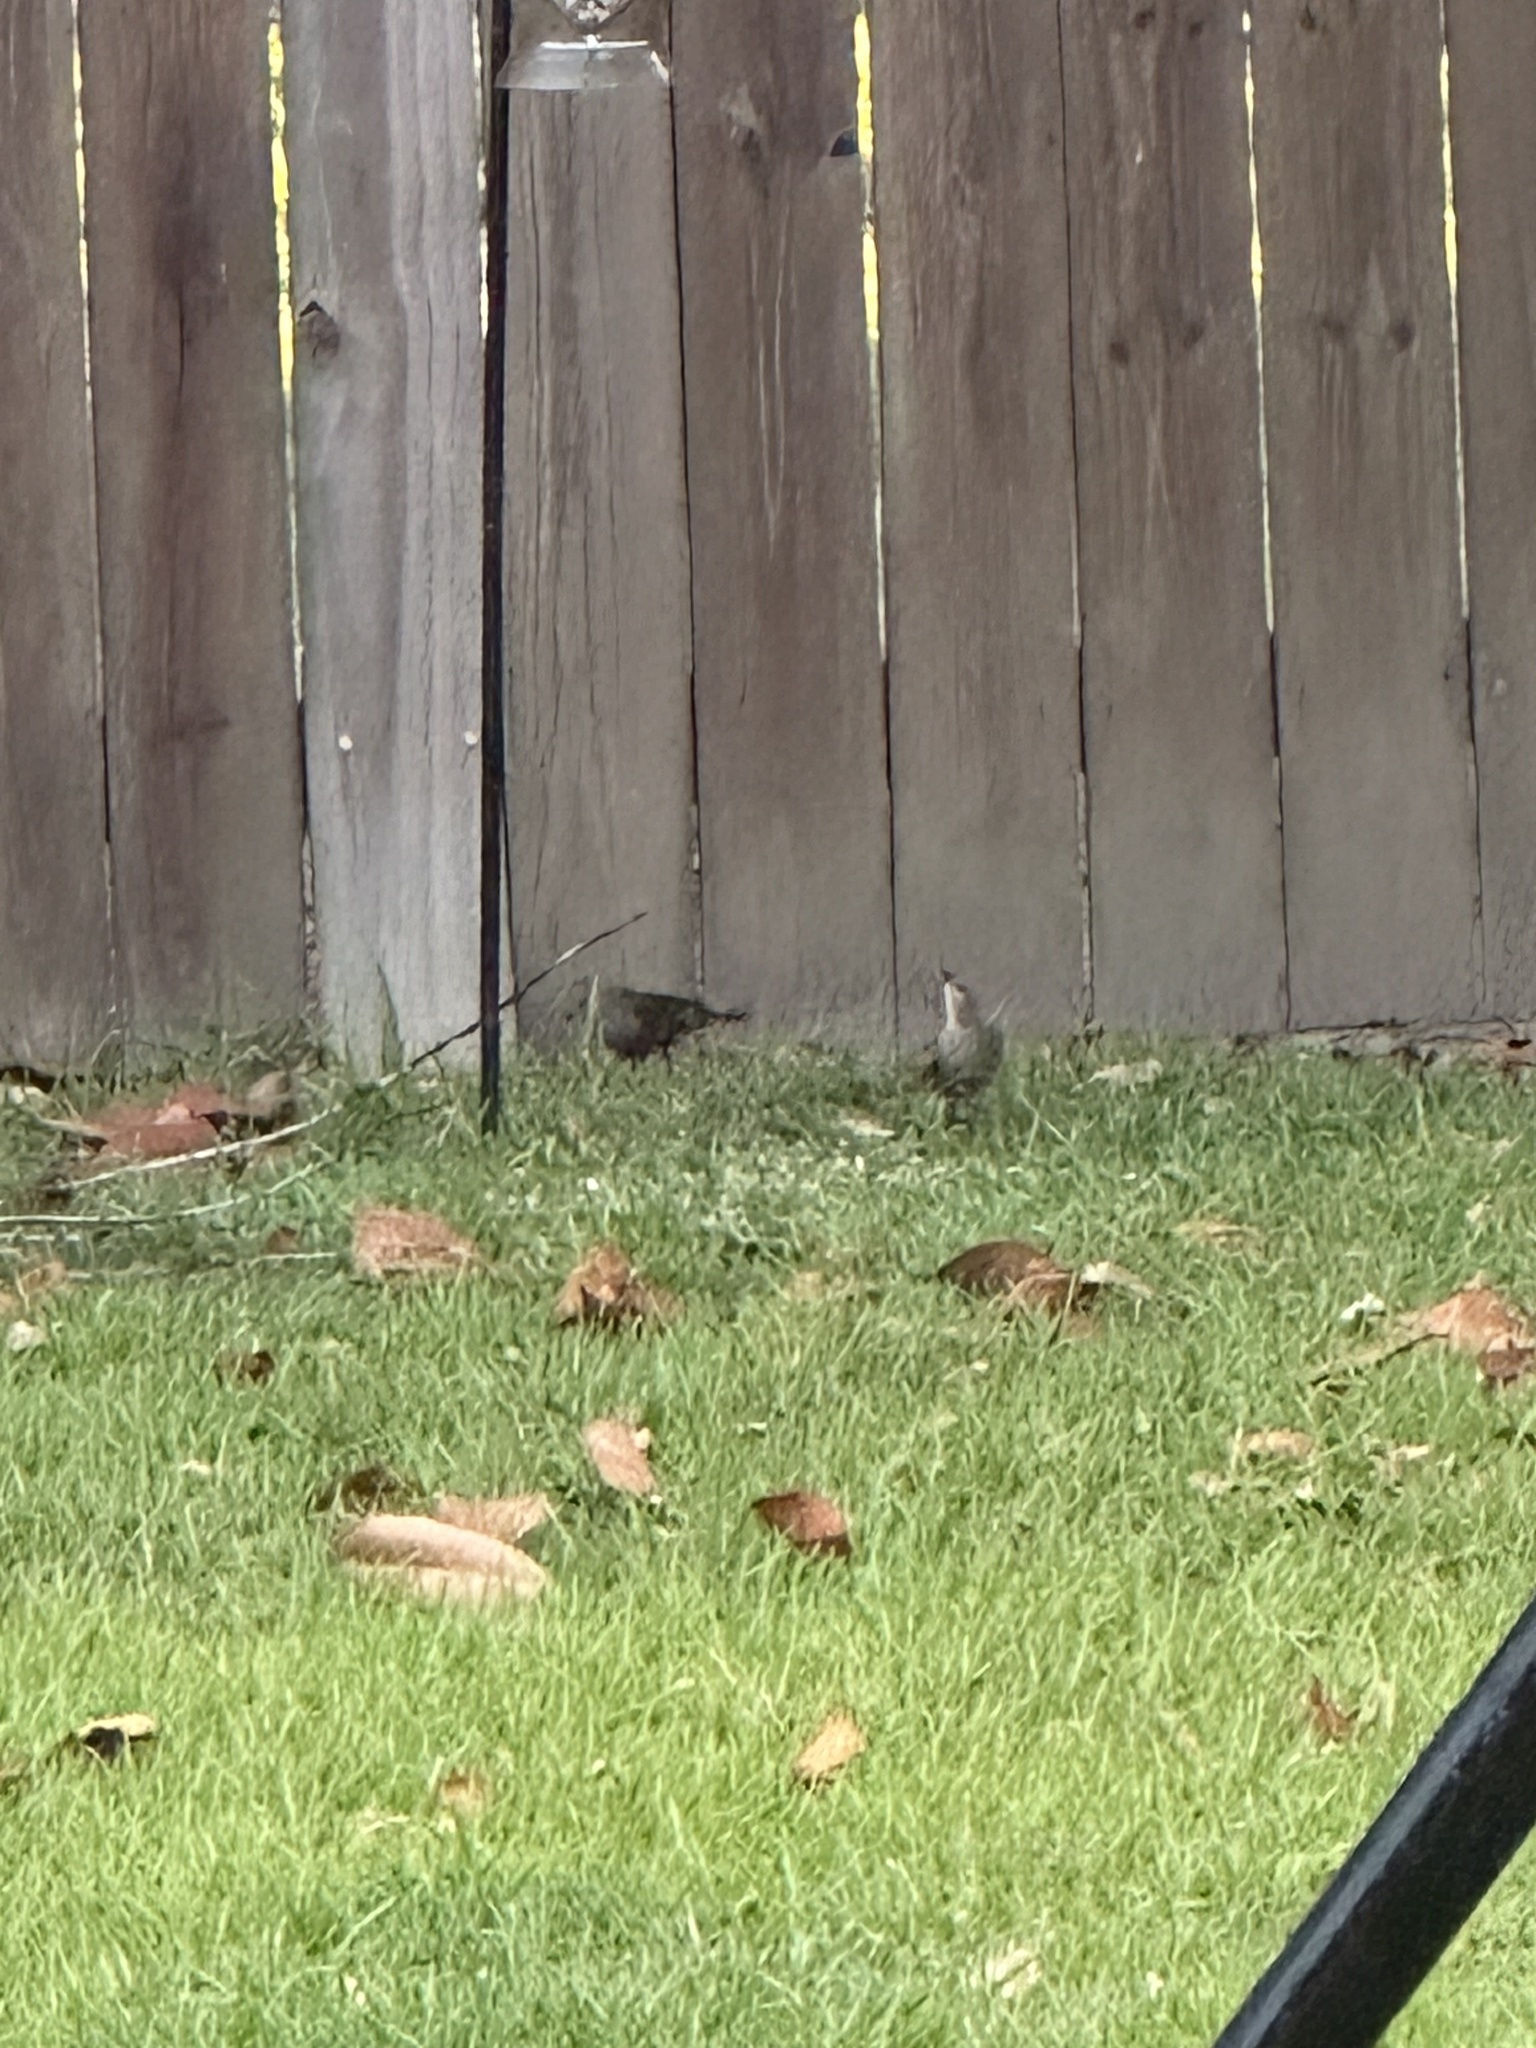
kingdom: Animalia
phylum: Chordata
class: Aves
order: Passeriformes
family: Icteridae
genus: Molothrus
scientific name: Molothrus ater
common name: Brown-headed cowbird
